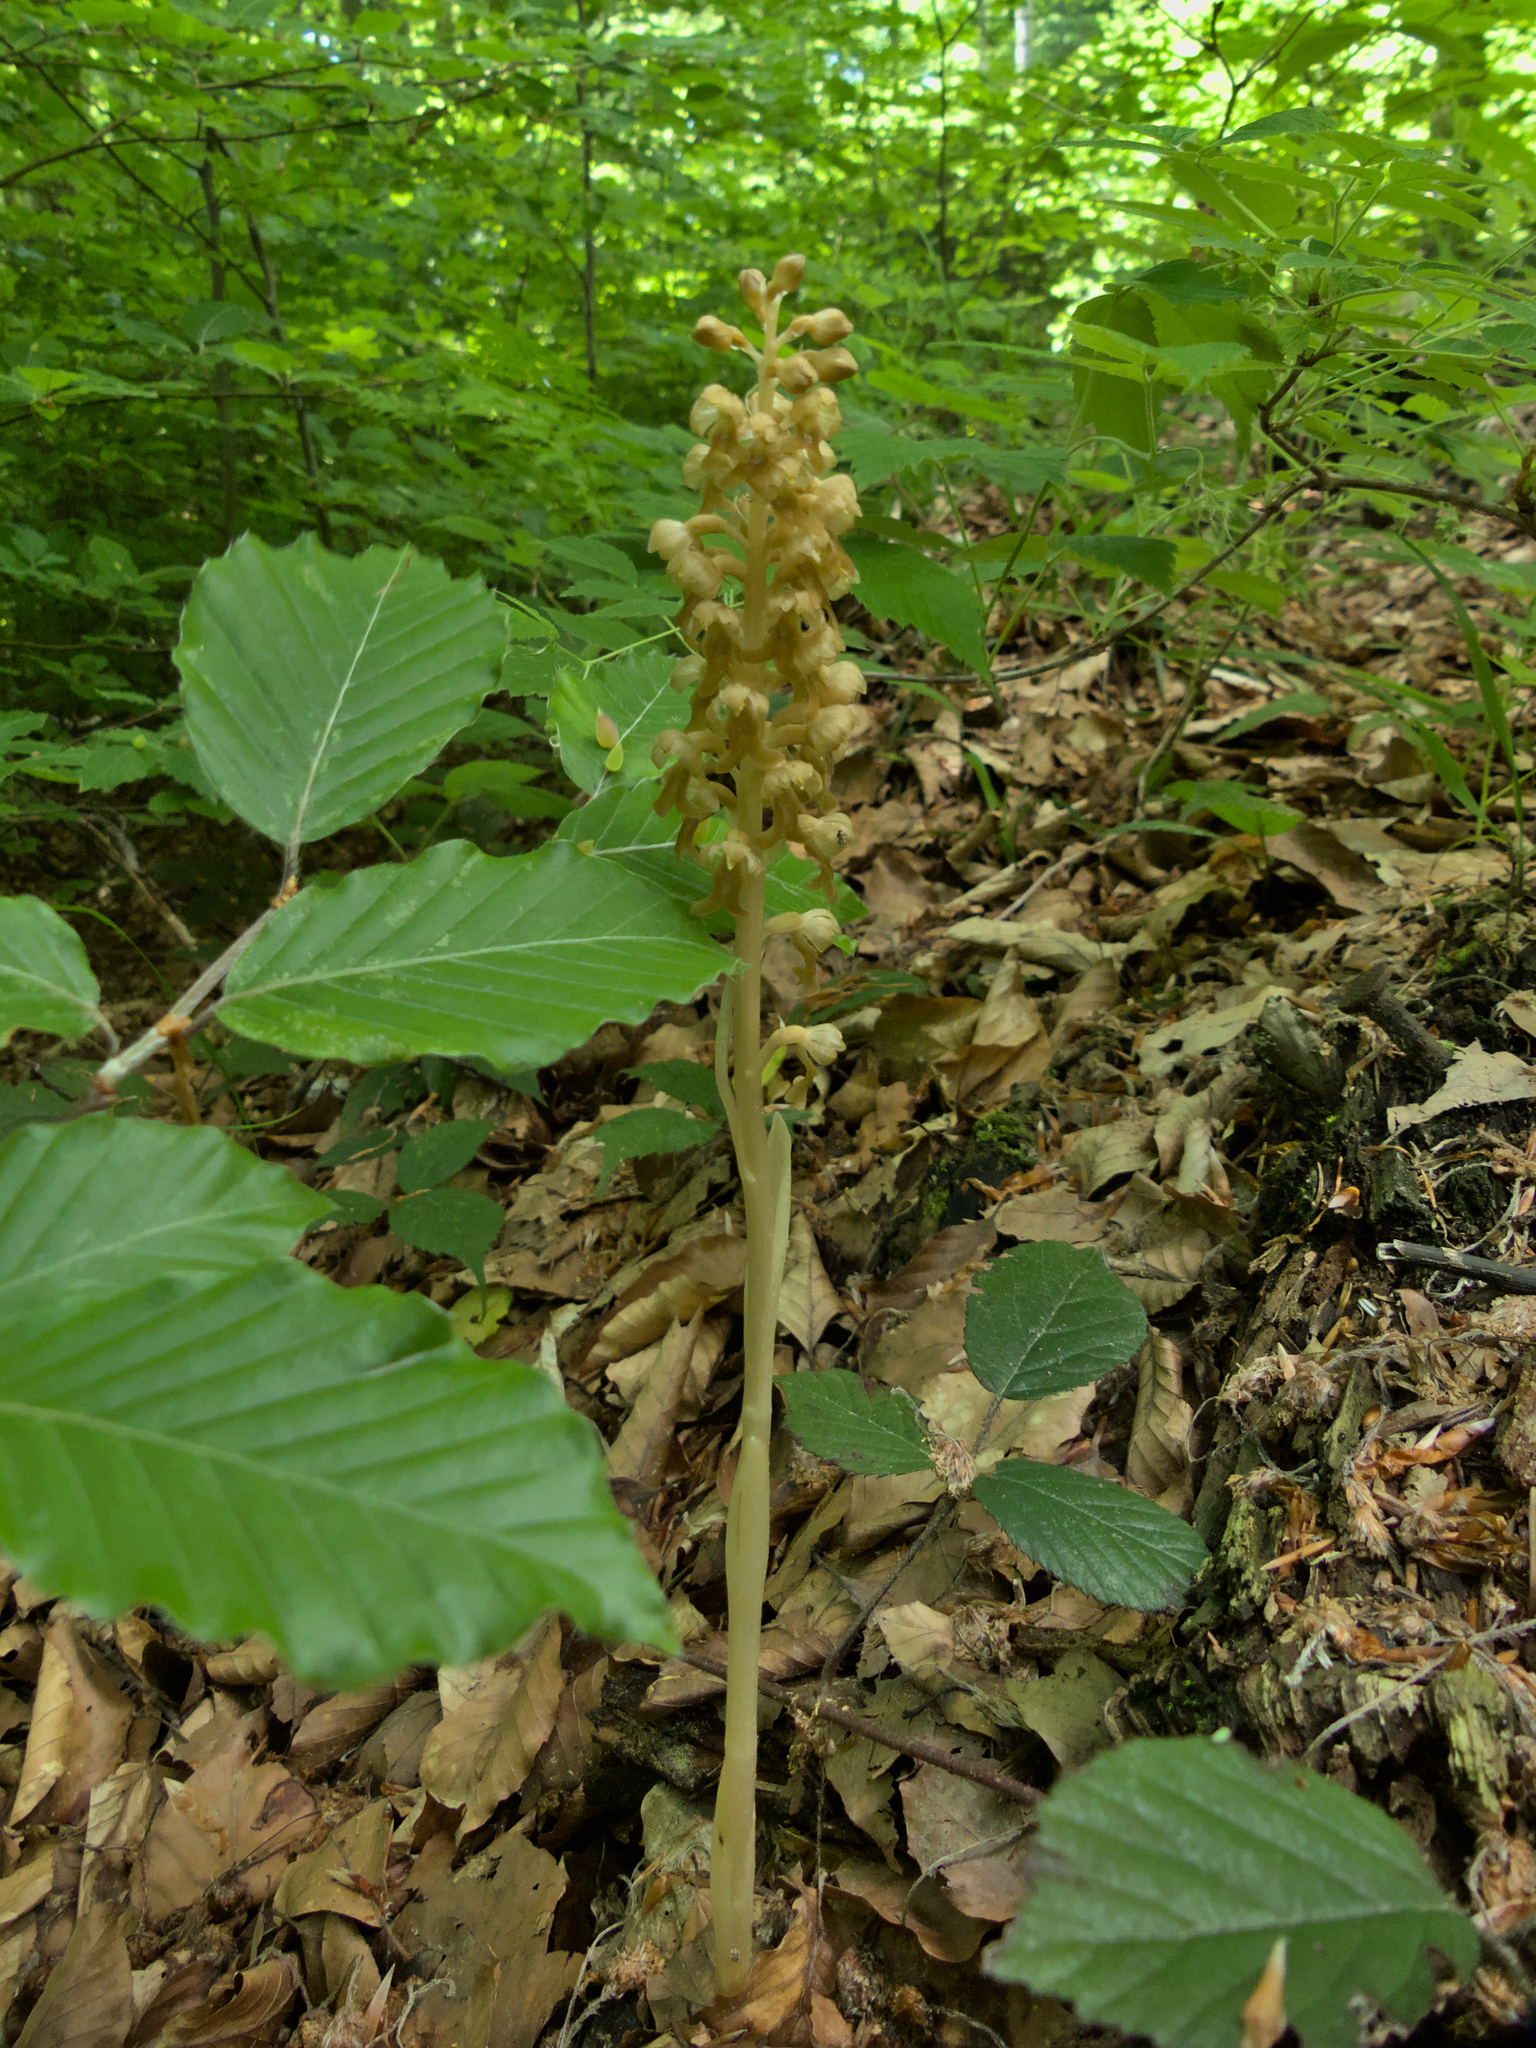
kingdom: Plantae
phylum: Tracheophyta
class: Liliopsida
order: Asparagales
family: Orchidaceae
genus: Neottia
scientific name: Neottia nidus-avis
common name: Bird's-nest orchid
